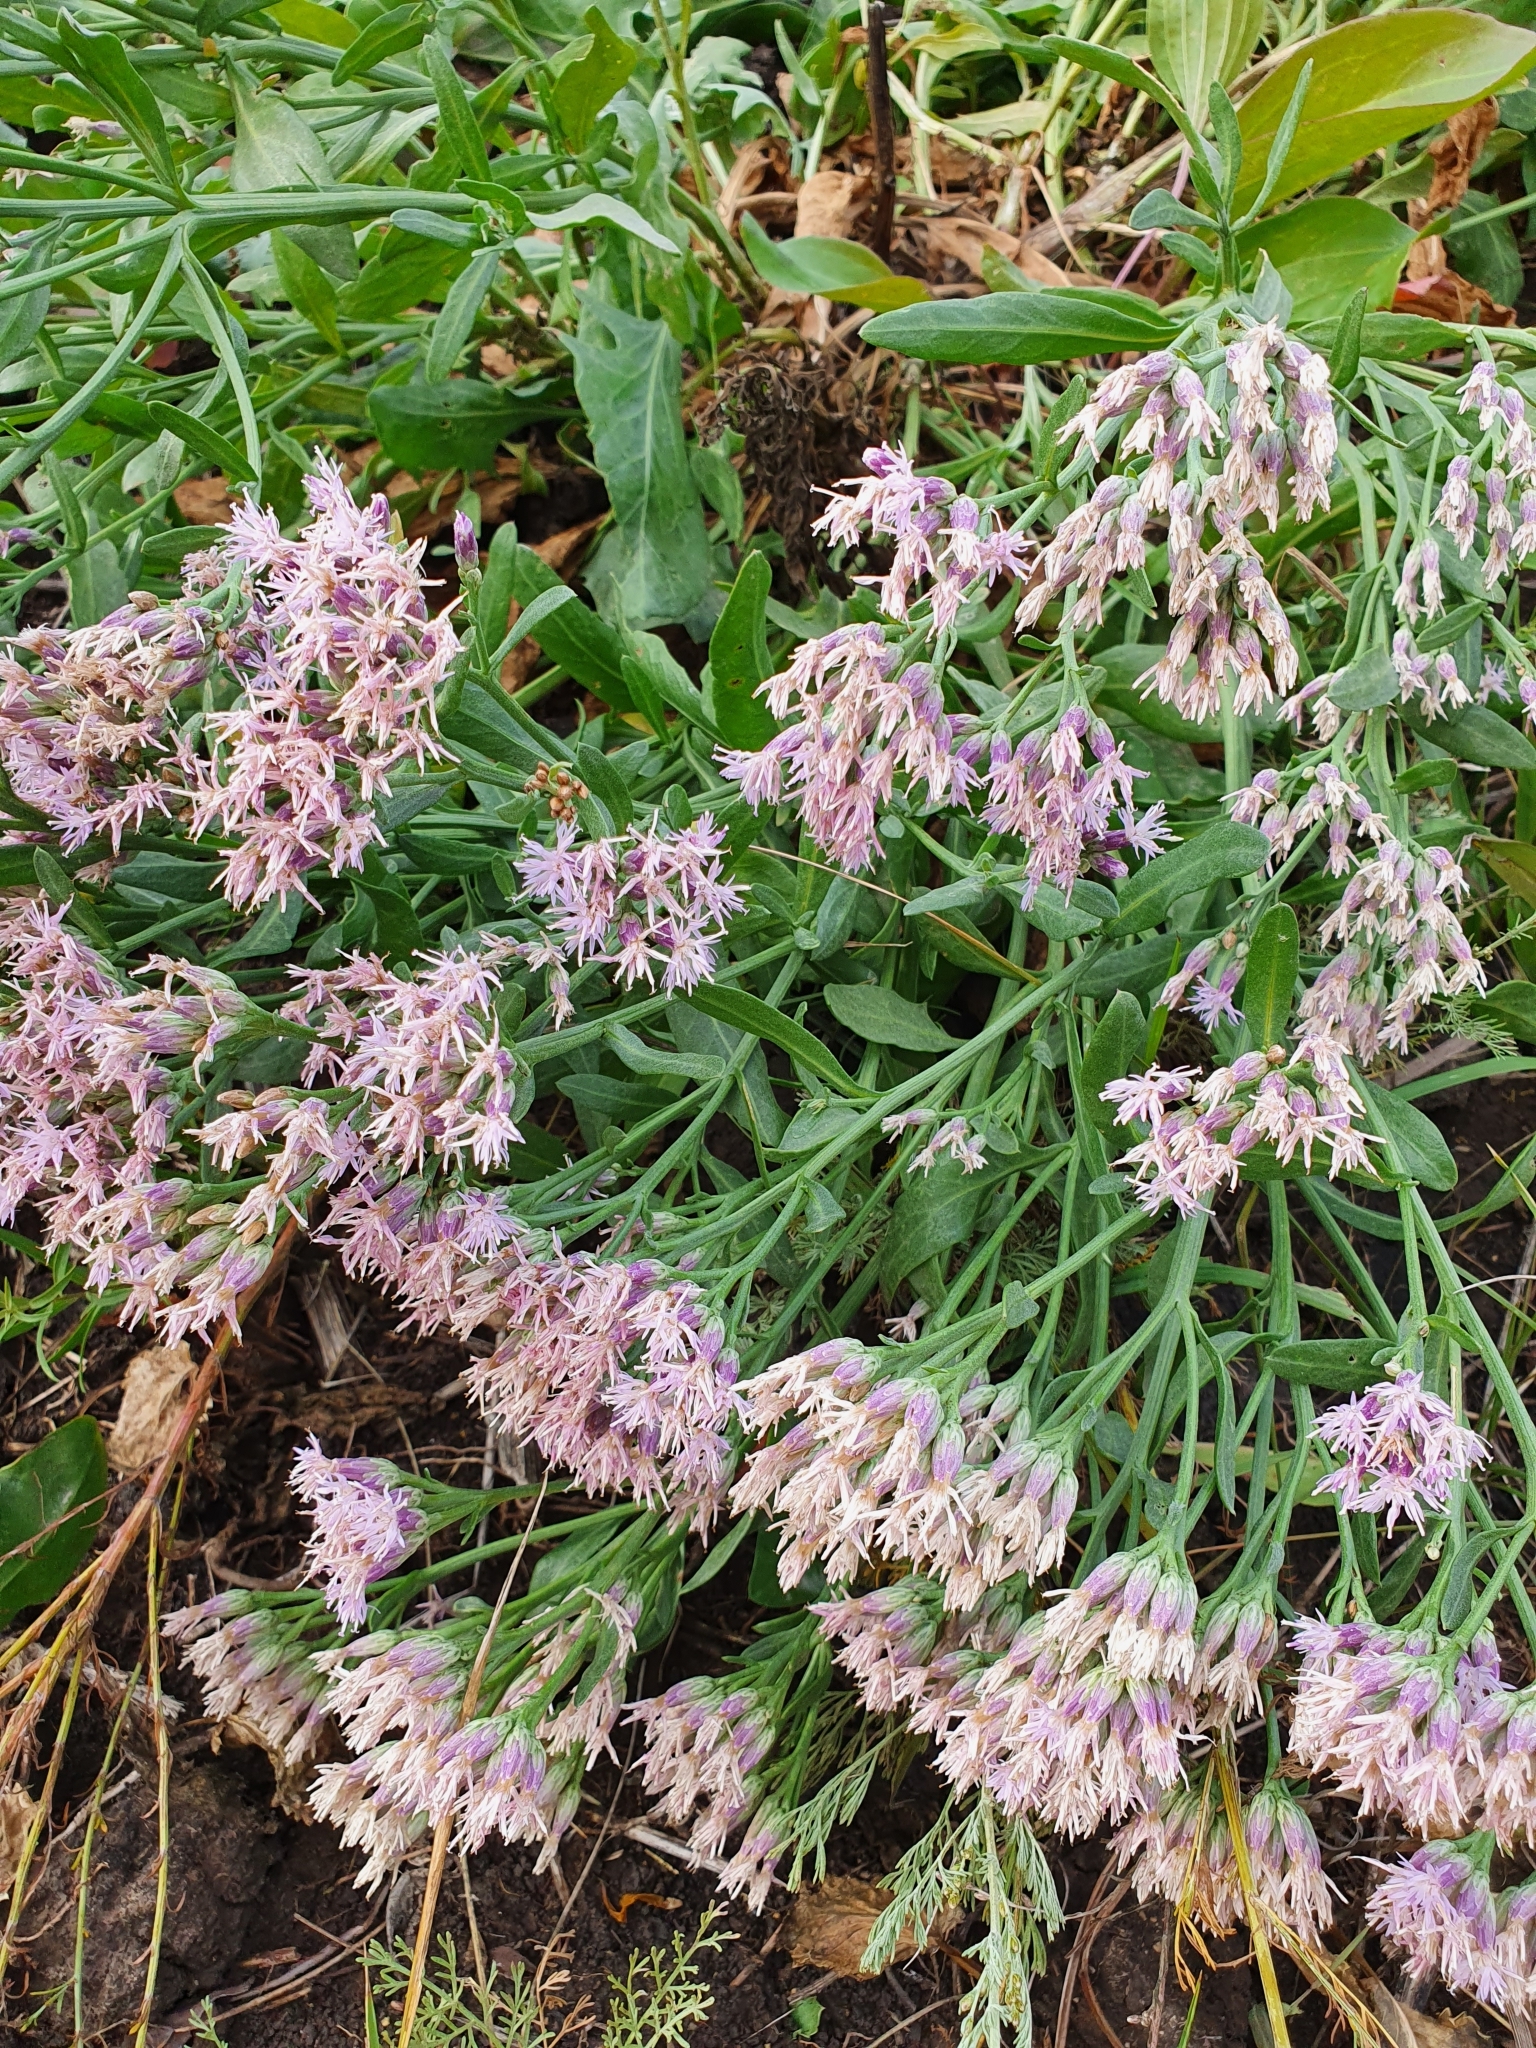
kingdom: Plantae
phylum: Tracheophyta
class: Magnoliopsida
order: Asterales
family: Asteraceae
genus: Saussurea
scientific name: Saussurea salsa
